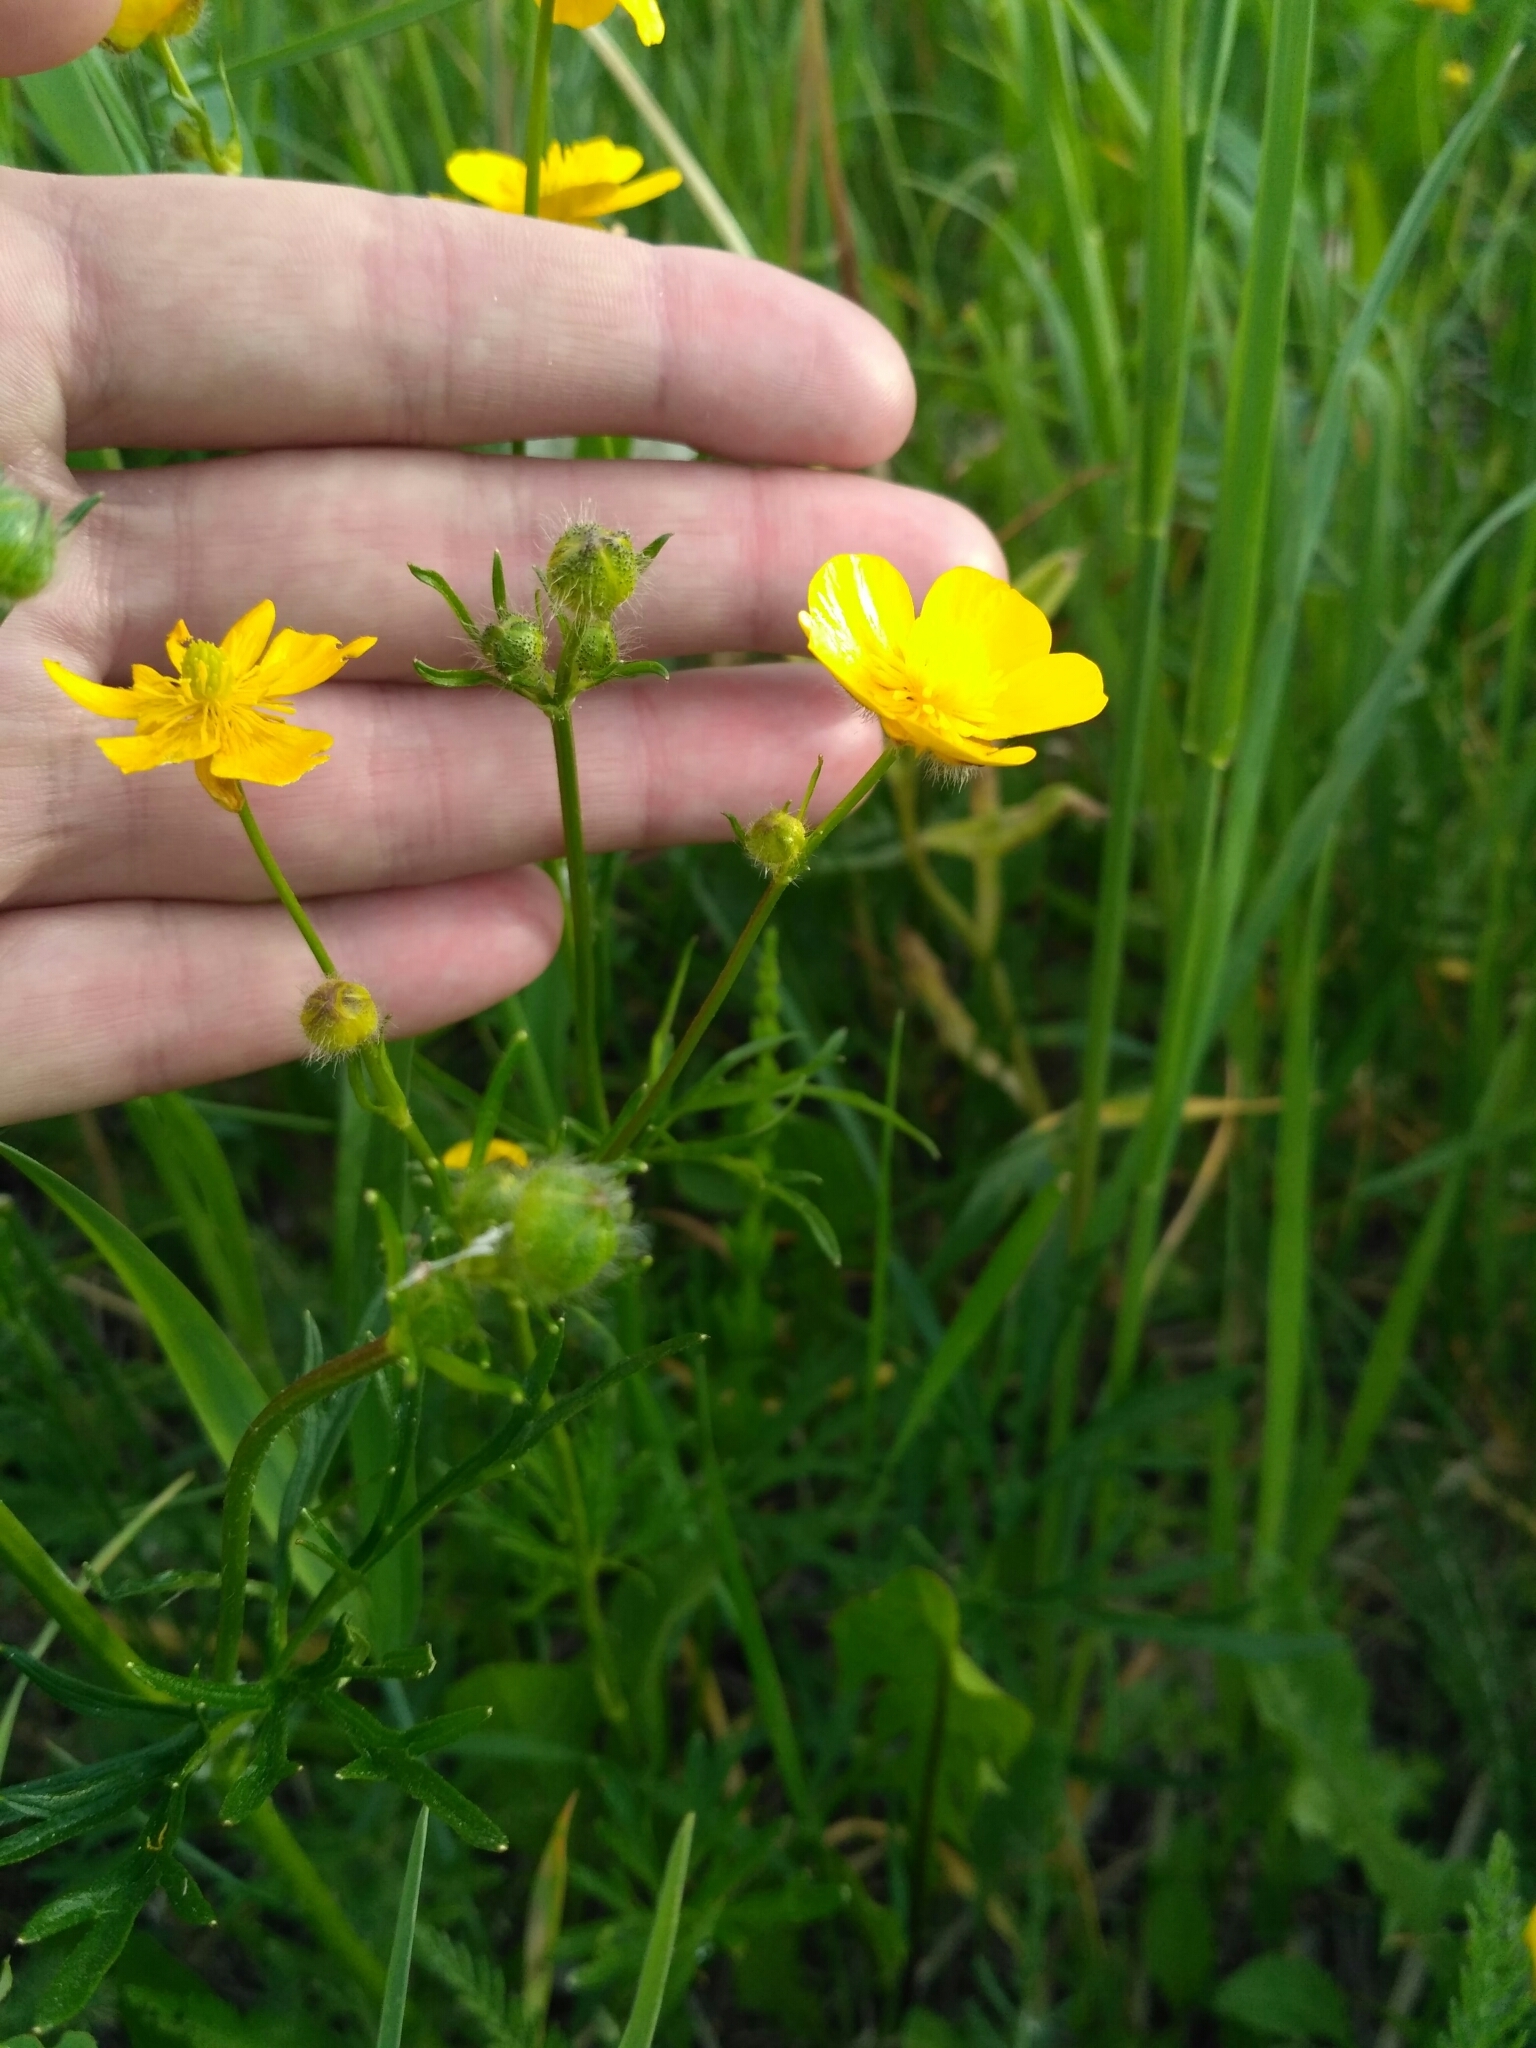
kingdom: Plantae
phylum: Tracheophyta
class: Magnoliopsida
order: Ranunculales
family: Ranunculaceae
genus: Ranunculus
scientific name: Ranunculus polyanthemos
